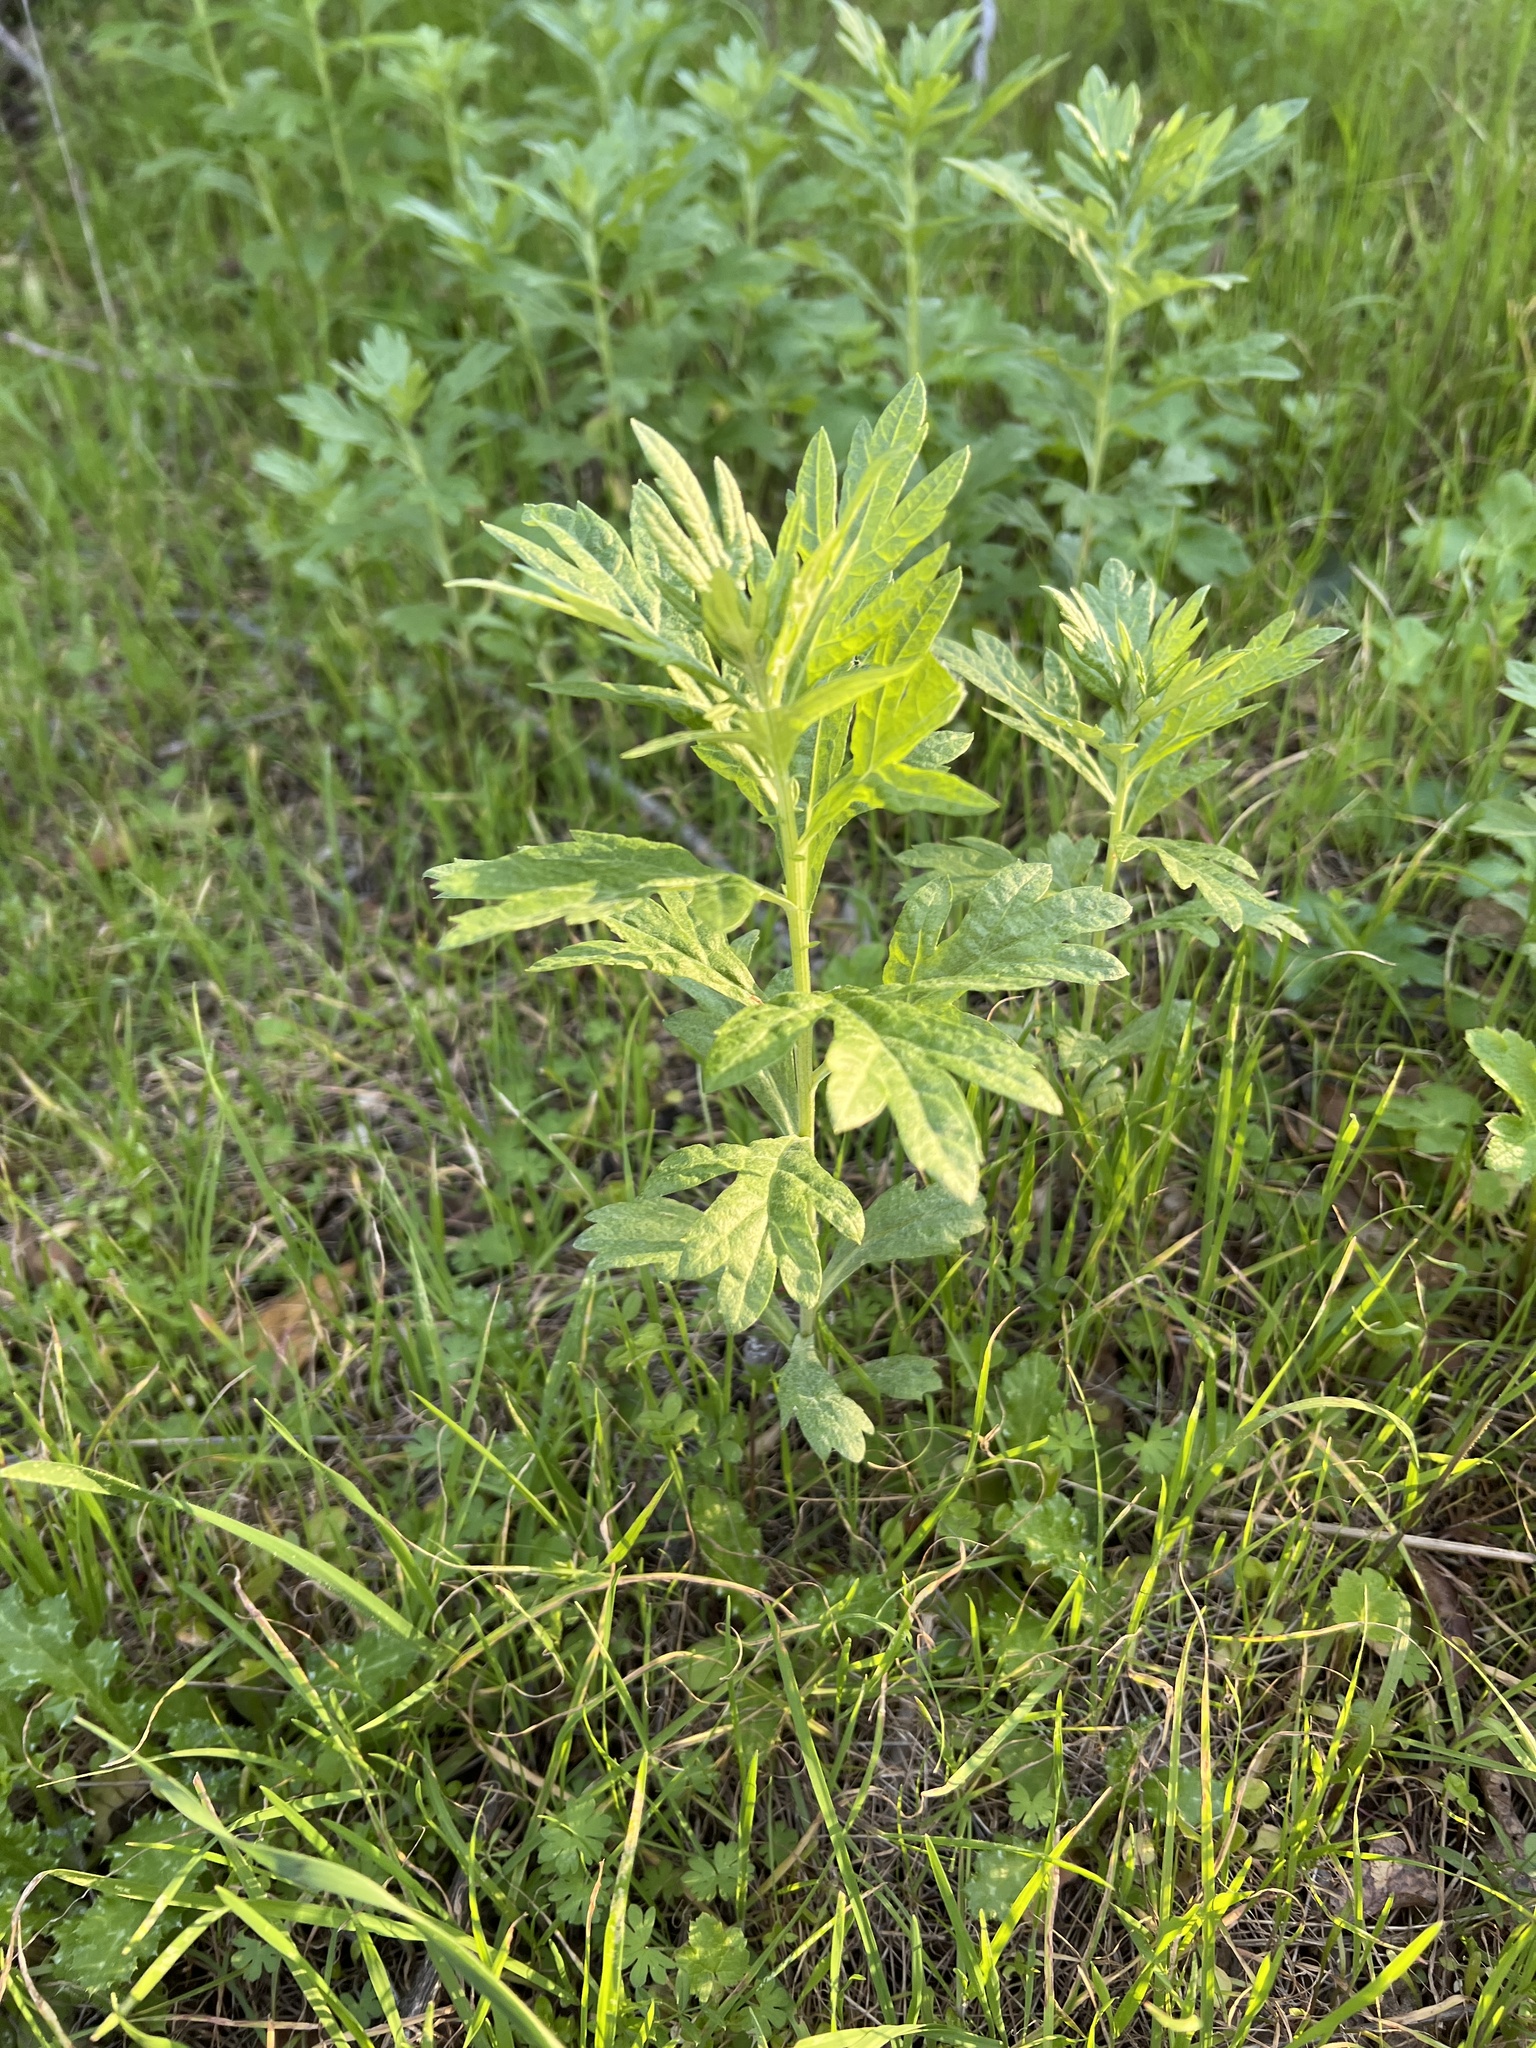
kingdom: Plantae
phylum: Tracheophyta
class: Magnoliopsida
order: Asterales
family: Asteraceae
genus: Artemisia
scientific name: Artemisia douglasiana
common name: Northwest mugwort
